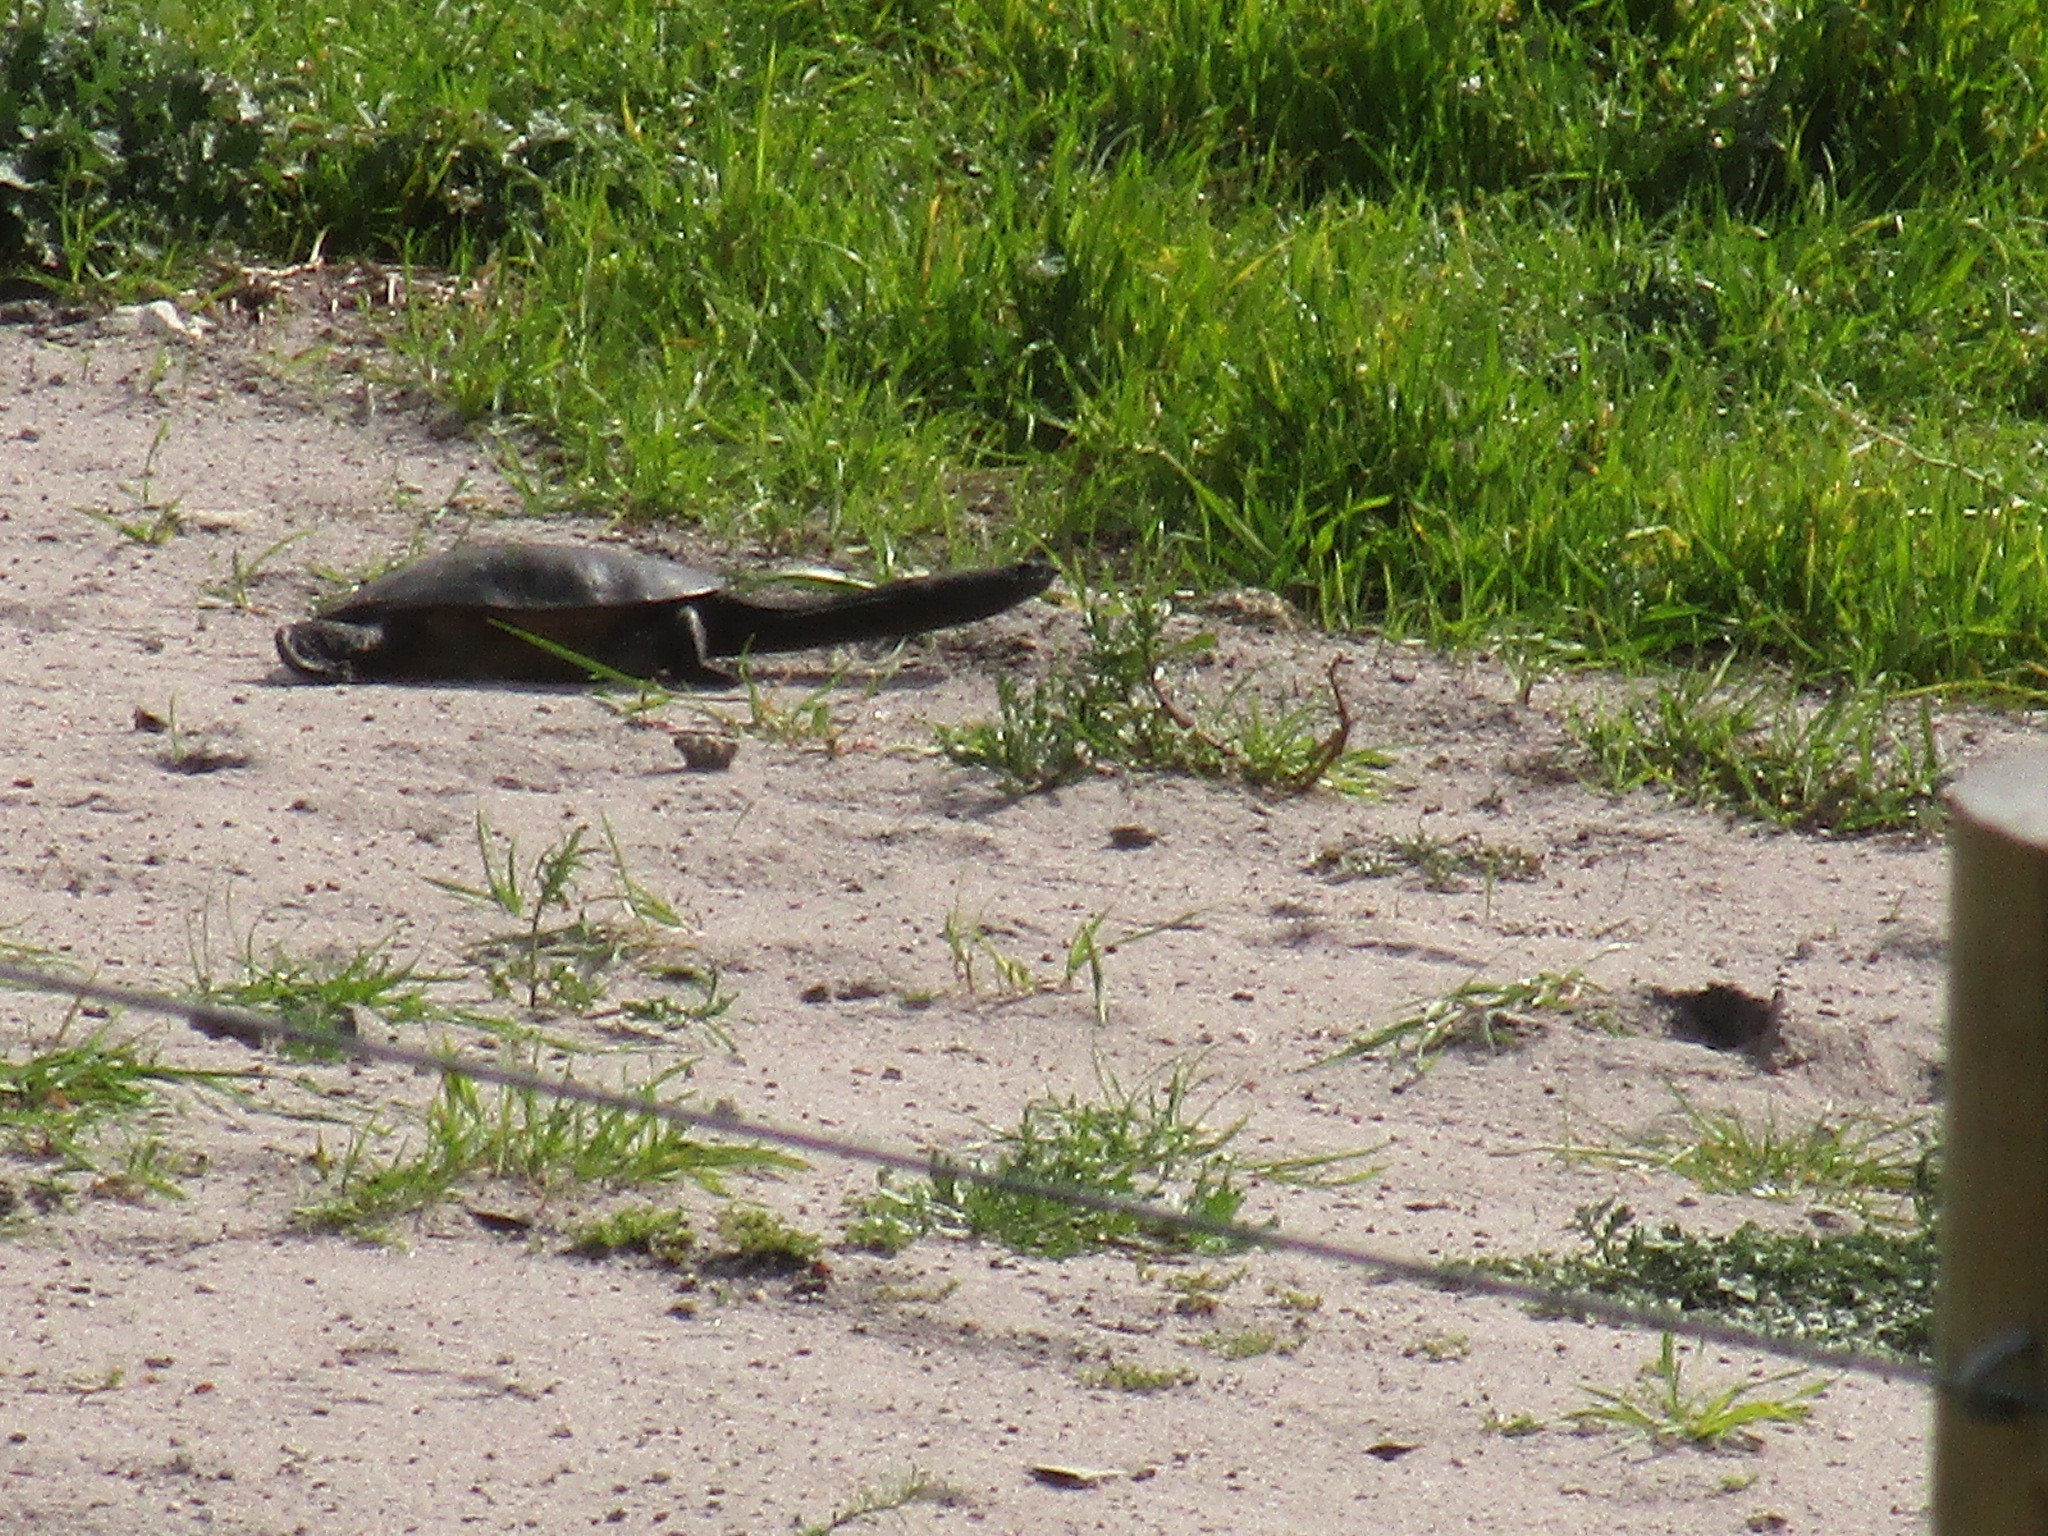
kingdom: Animalia
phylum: Chordata
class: Testudines
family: Chelidae
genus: Chelodina
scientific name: Chelodina oblonga
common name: Northern snake-necked turtle
